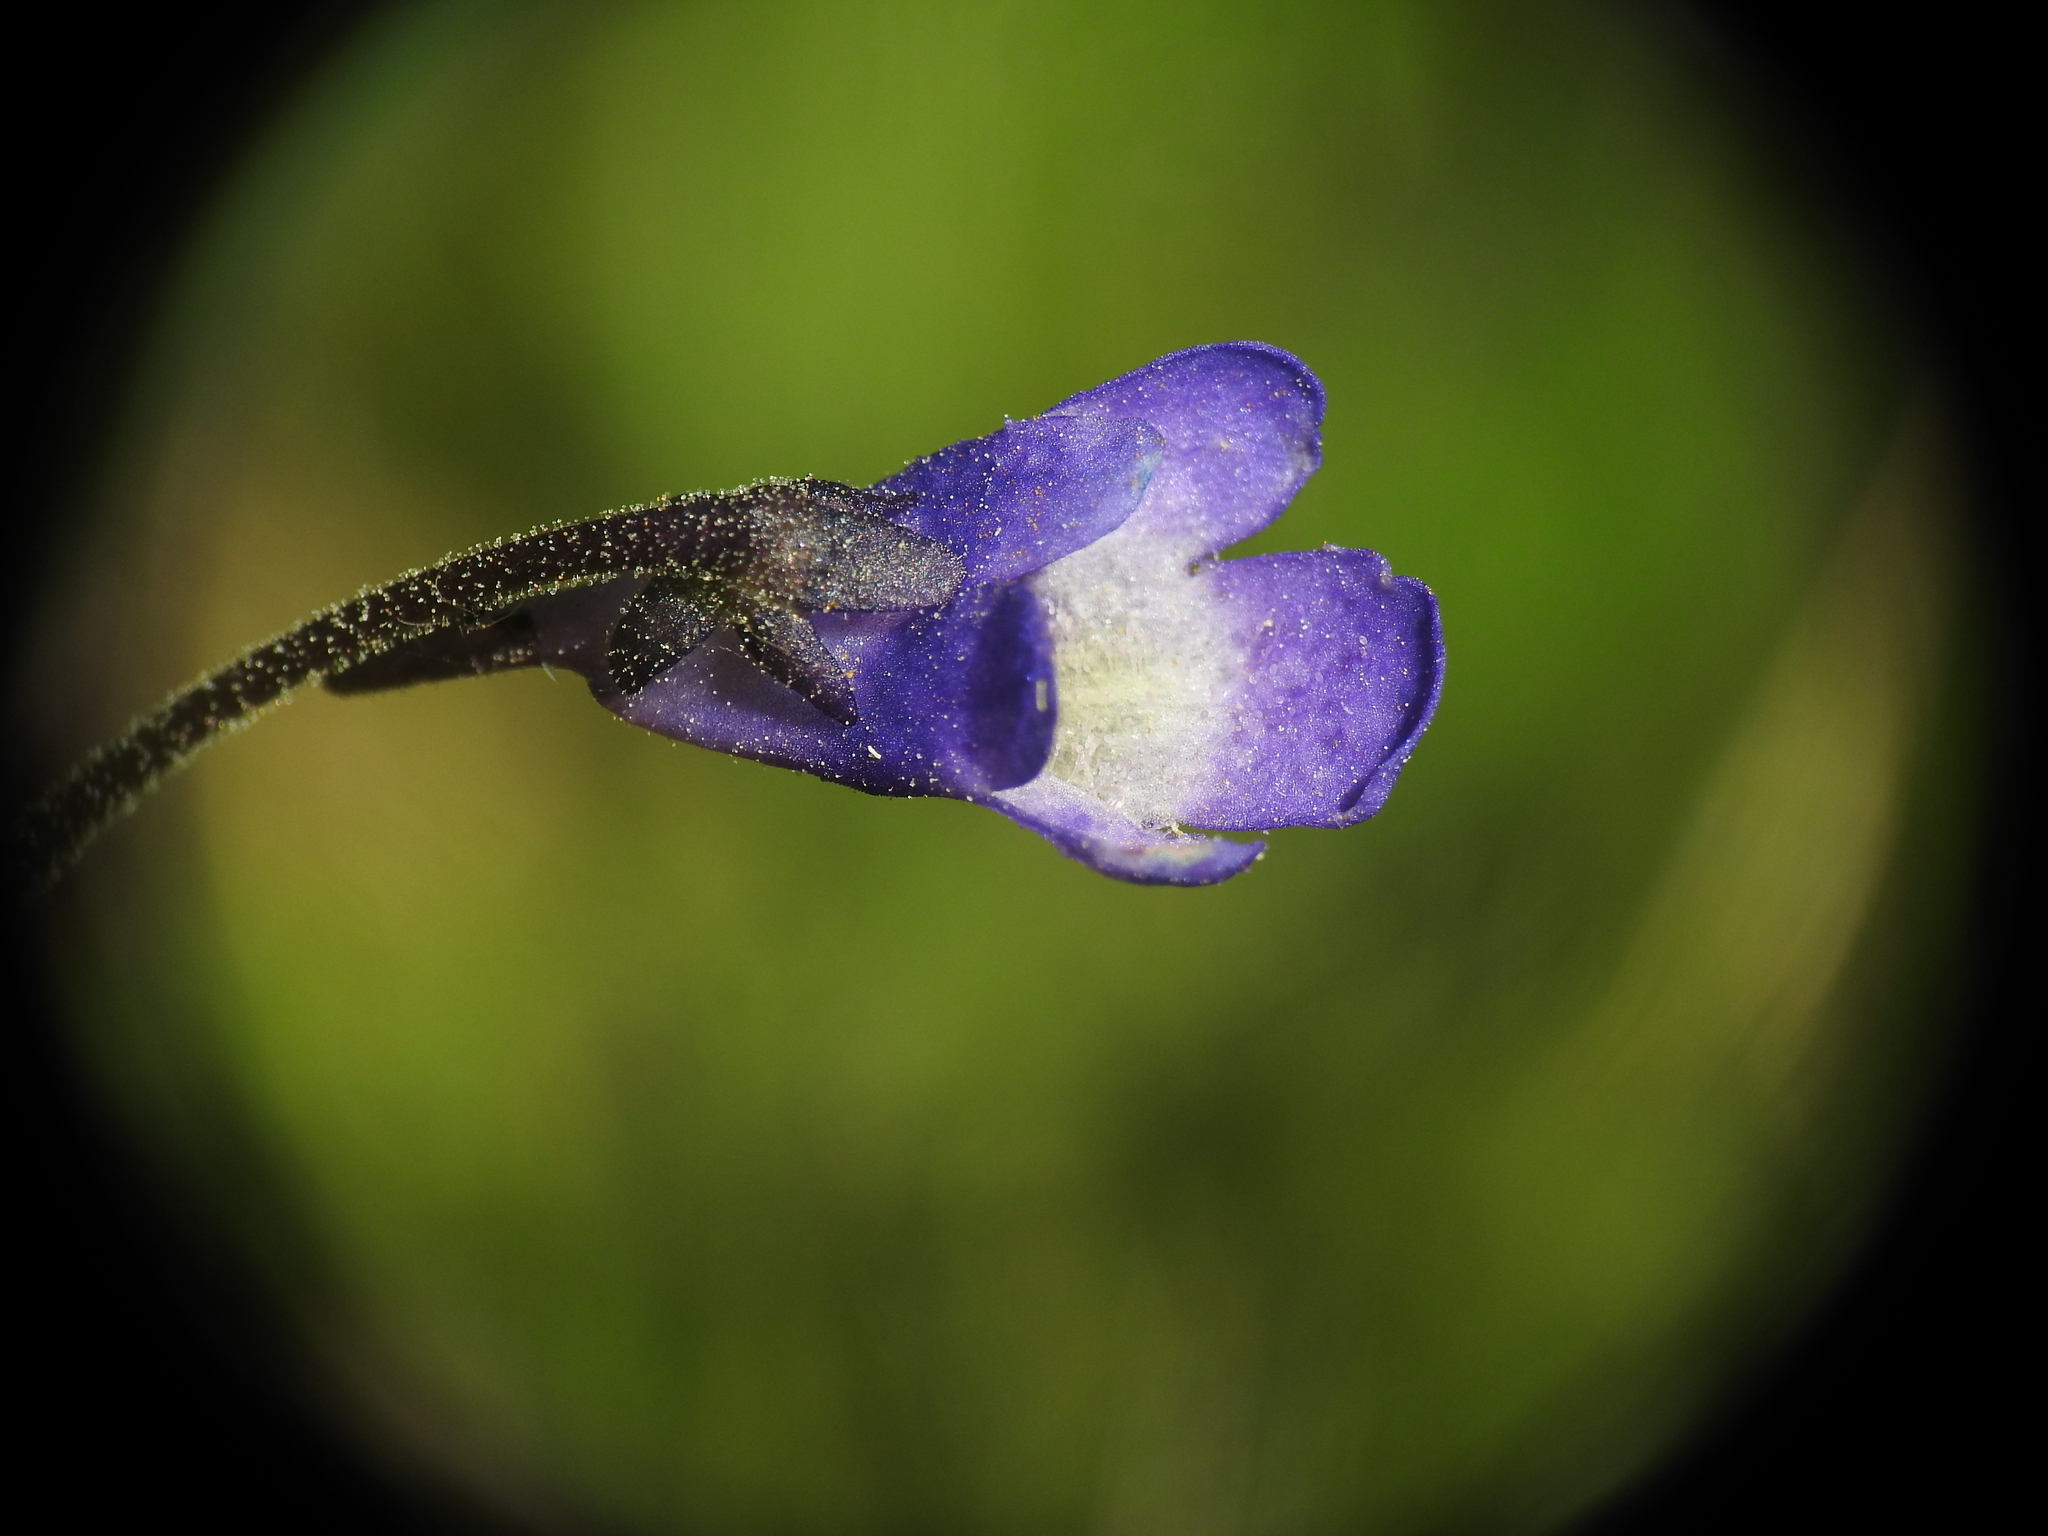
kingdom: Plantae
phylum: Tracheophyta
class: Magnoliopsida
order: Lamiales
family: Lentibulariaceae
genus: Pinguicula
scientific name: Pinguicula vulgaris
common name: Common butterwort
